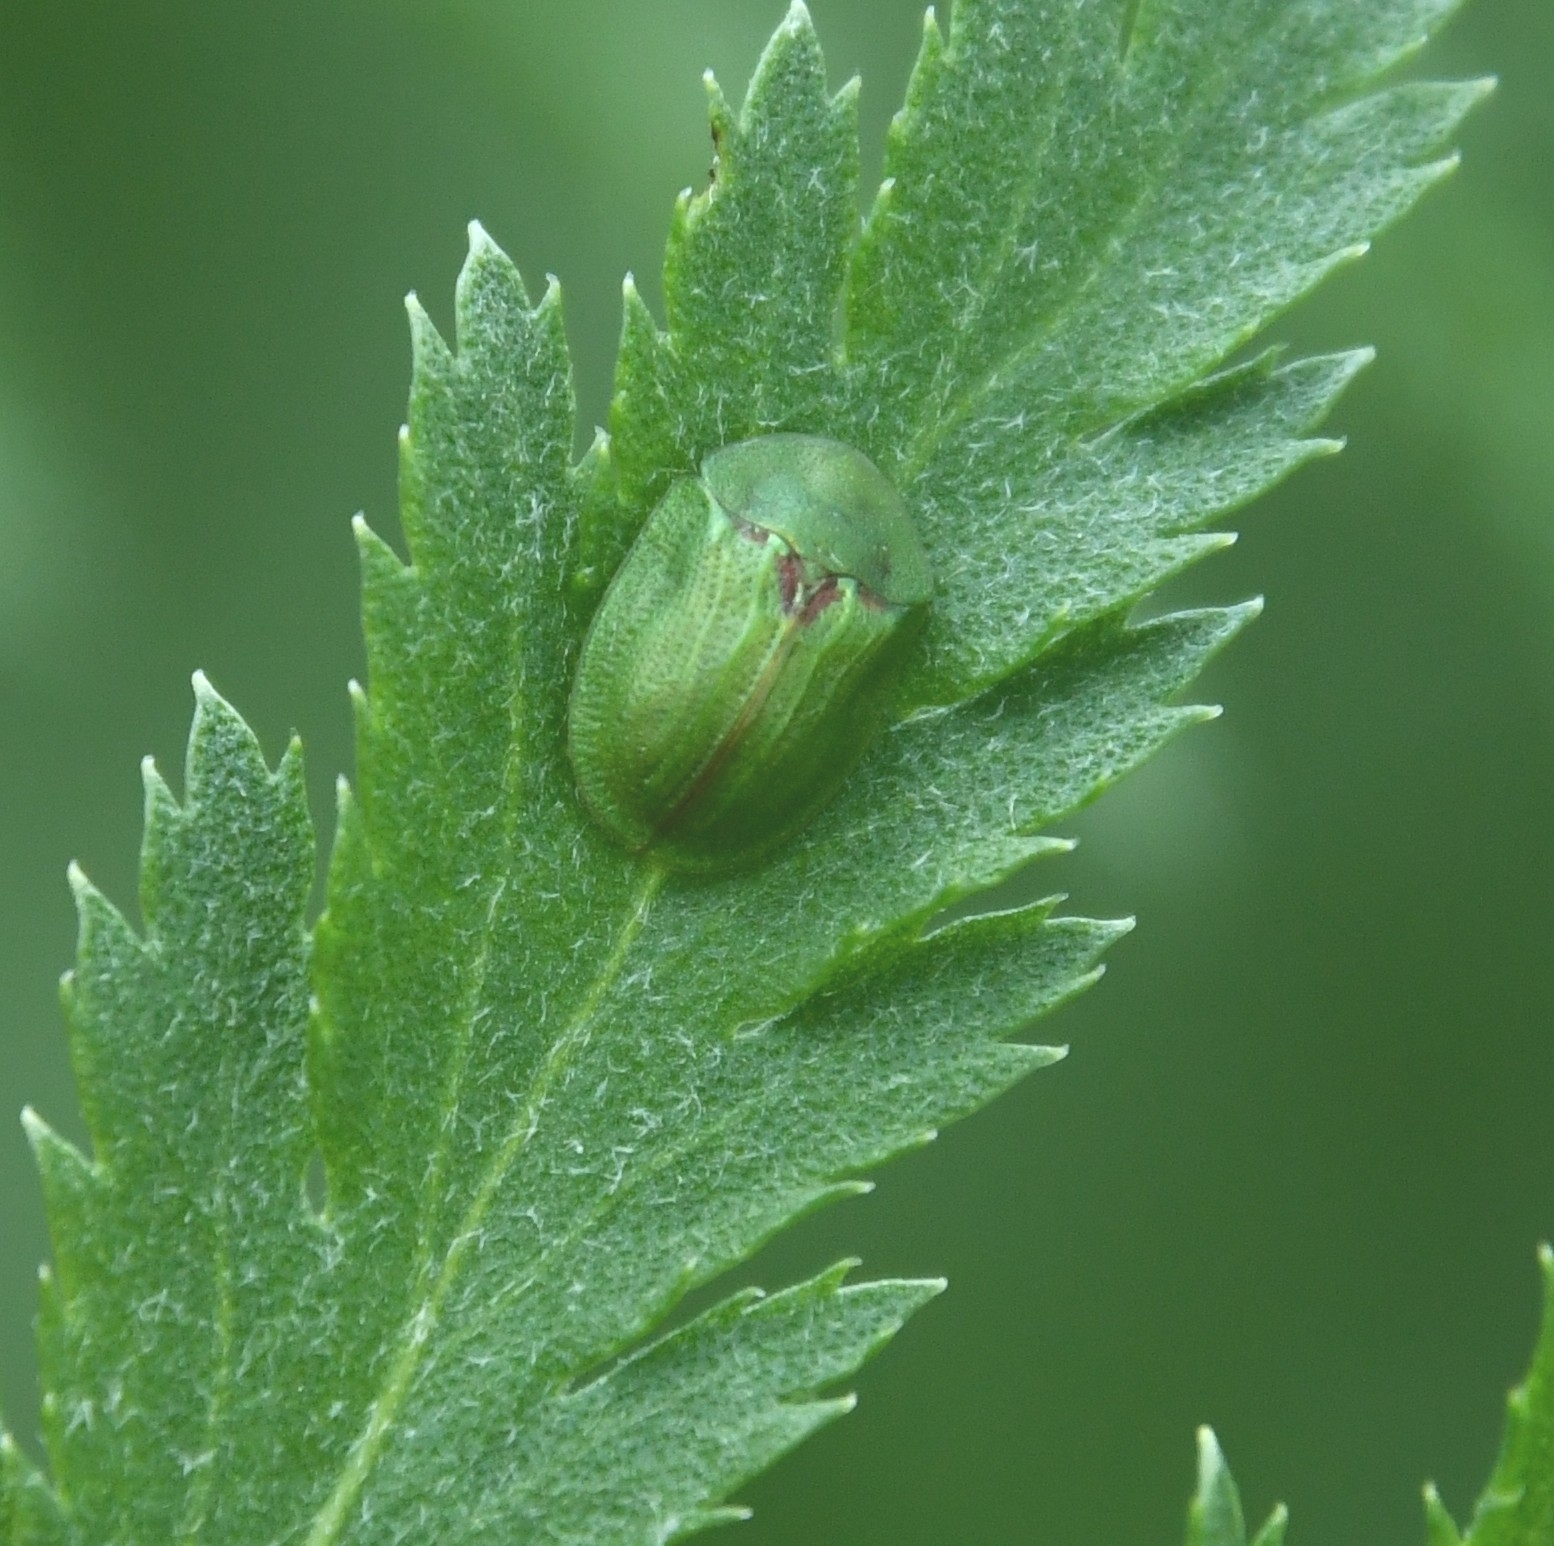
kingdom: Animalia
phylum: Arthropoda
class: Insecta
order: Coleoptera
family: Chrysomelidae
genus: Cassida
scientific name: Cassida stigmatica
